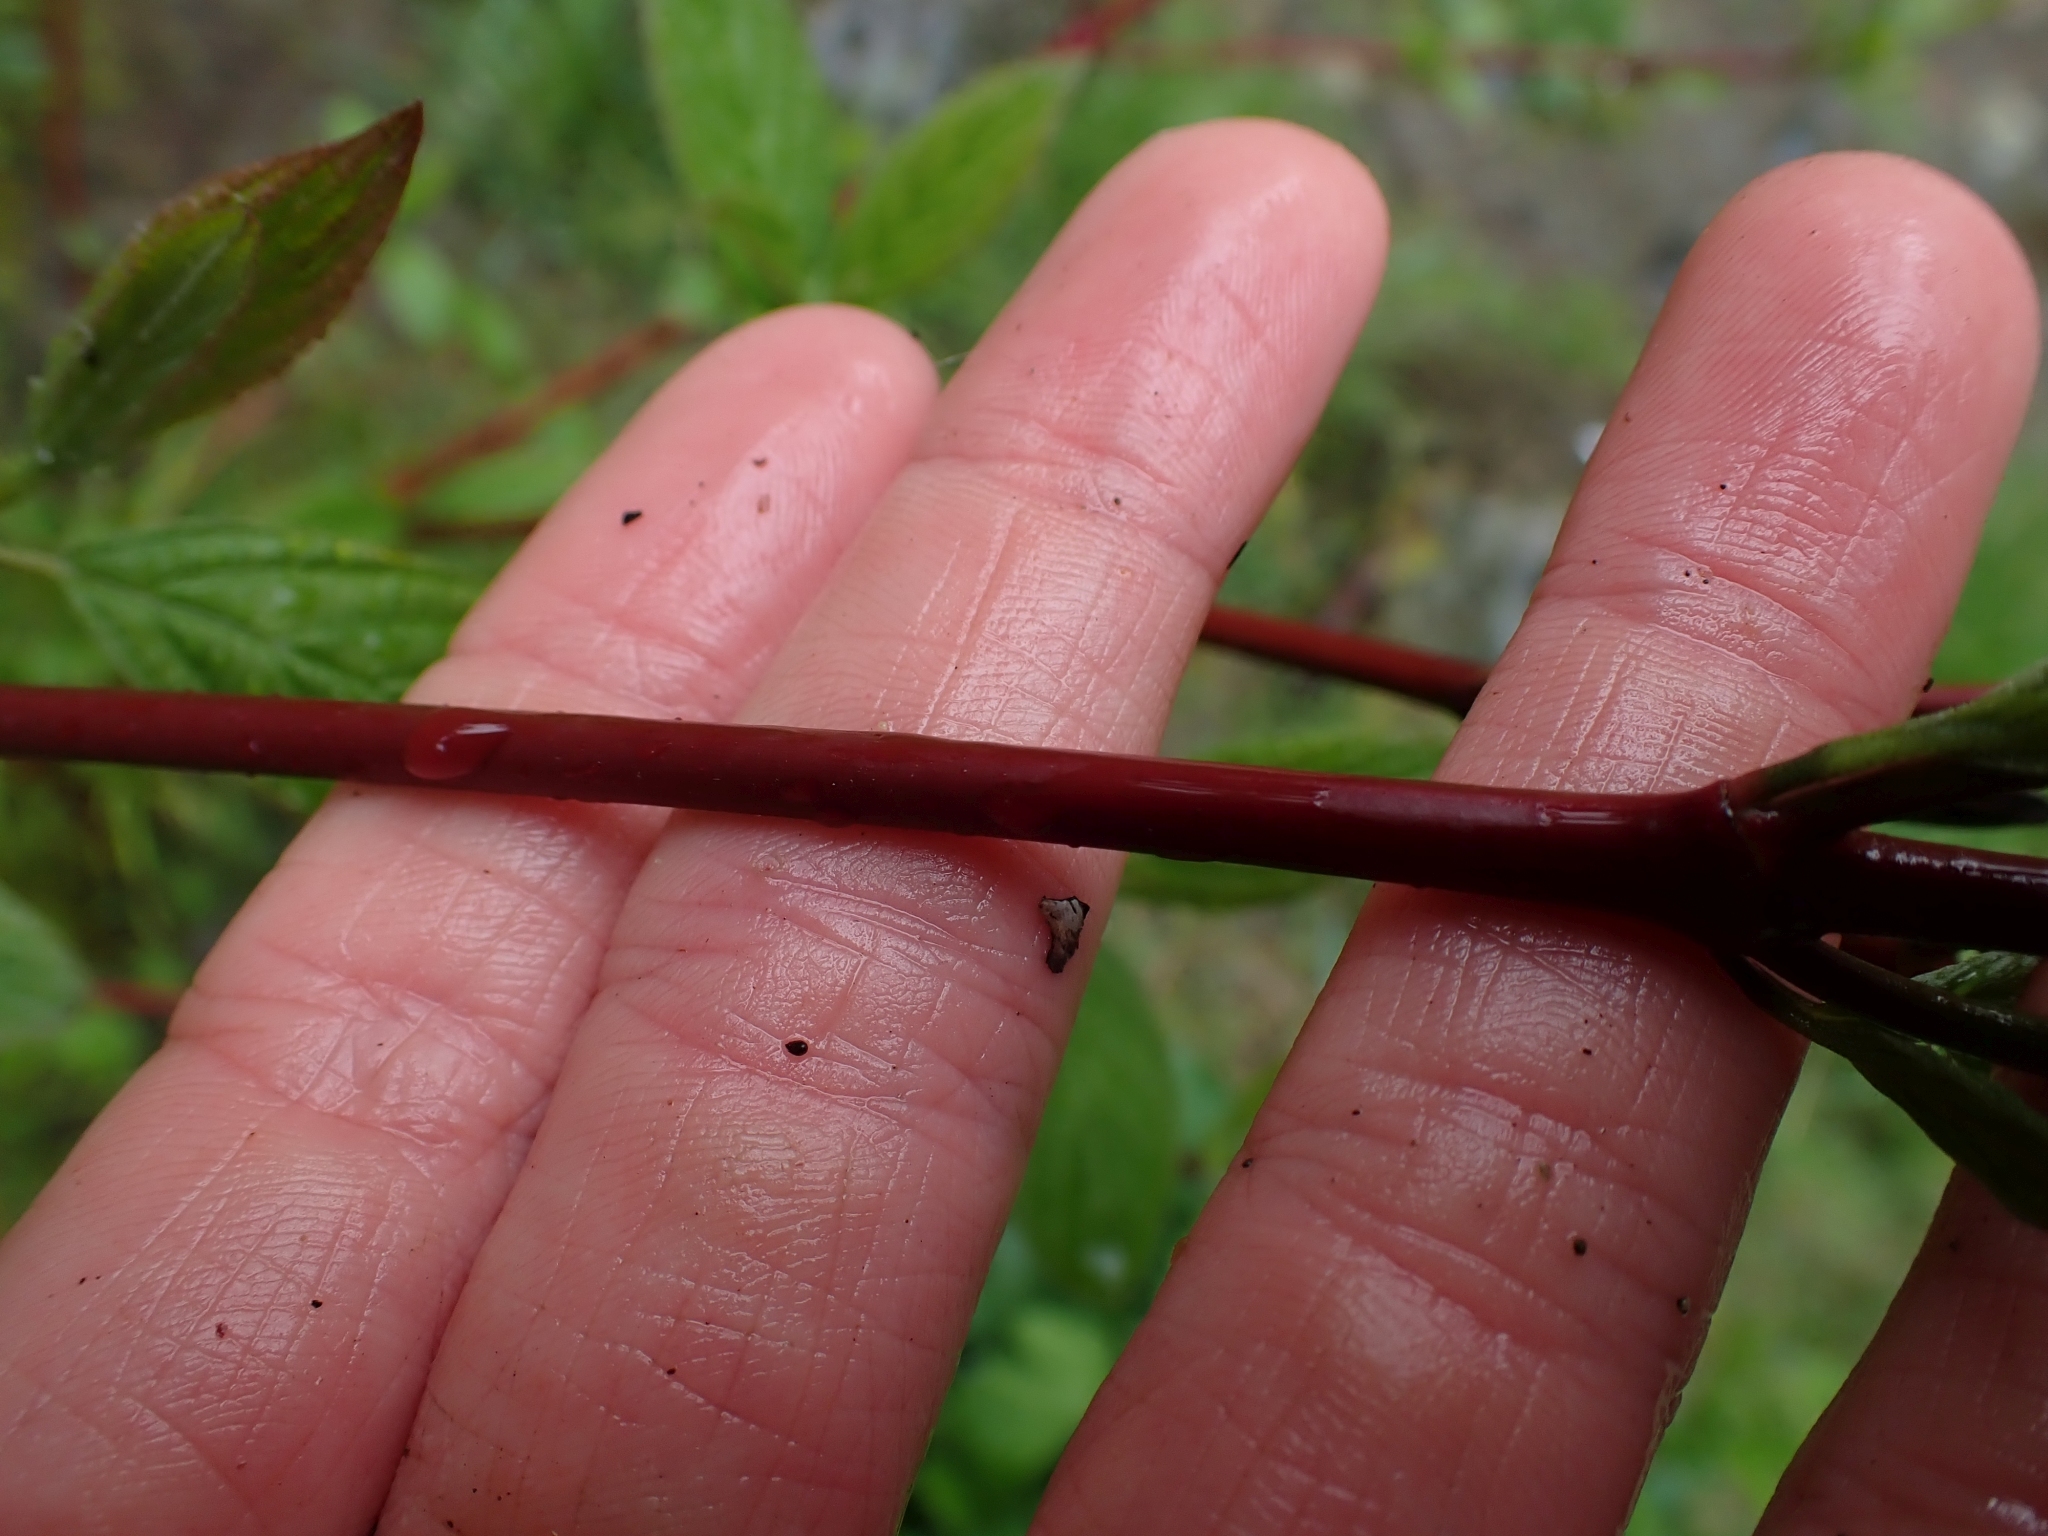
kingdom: Plantae
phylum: Tracheophyta
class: Magnoliopsida
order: Cornales
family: Cornaceae
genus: Cornus
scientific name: Cornus sericea
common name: Red-osier dogwood
